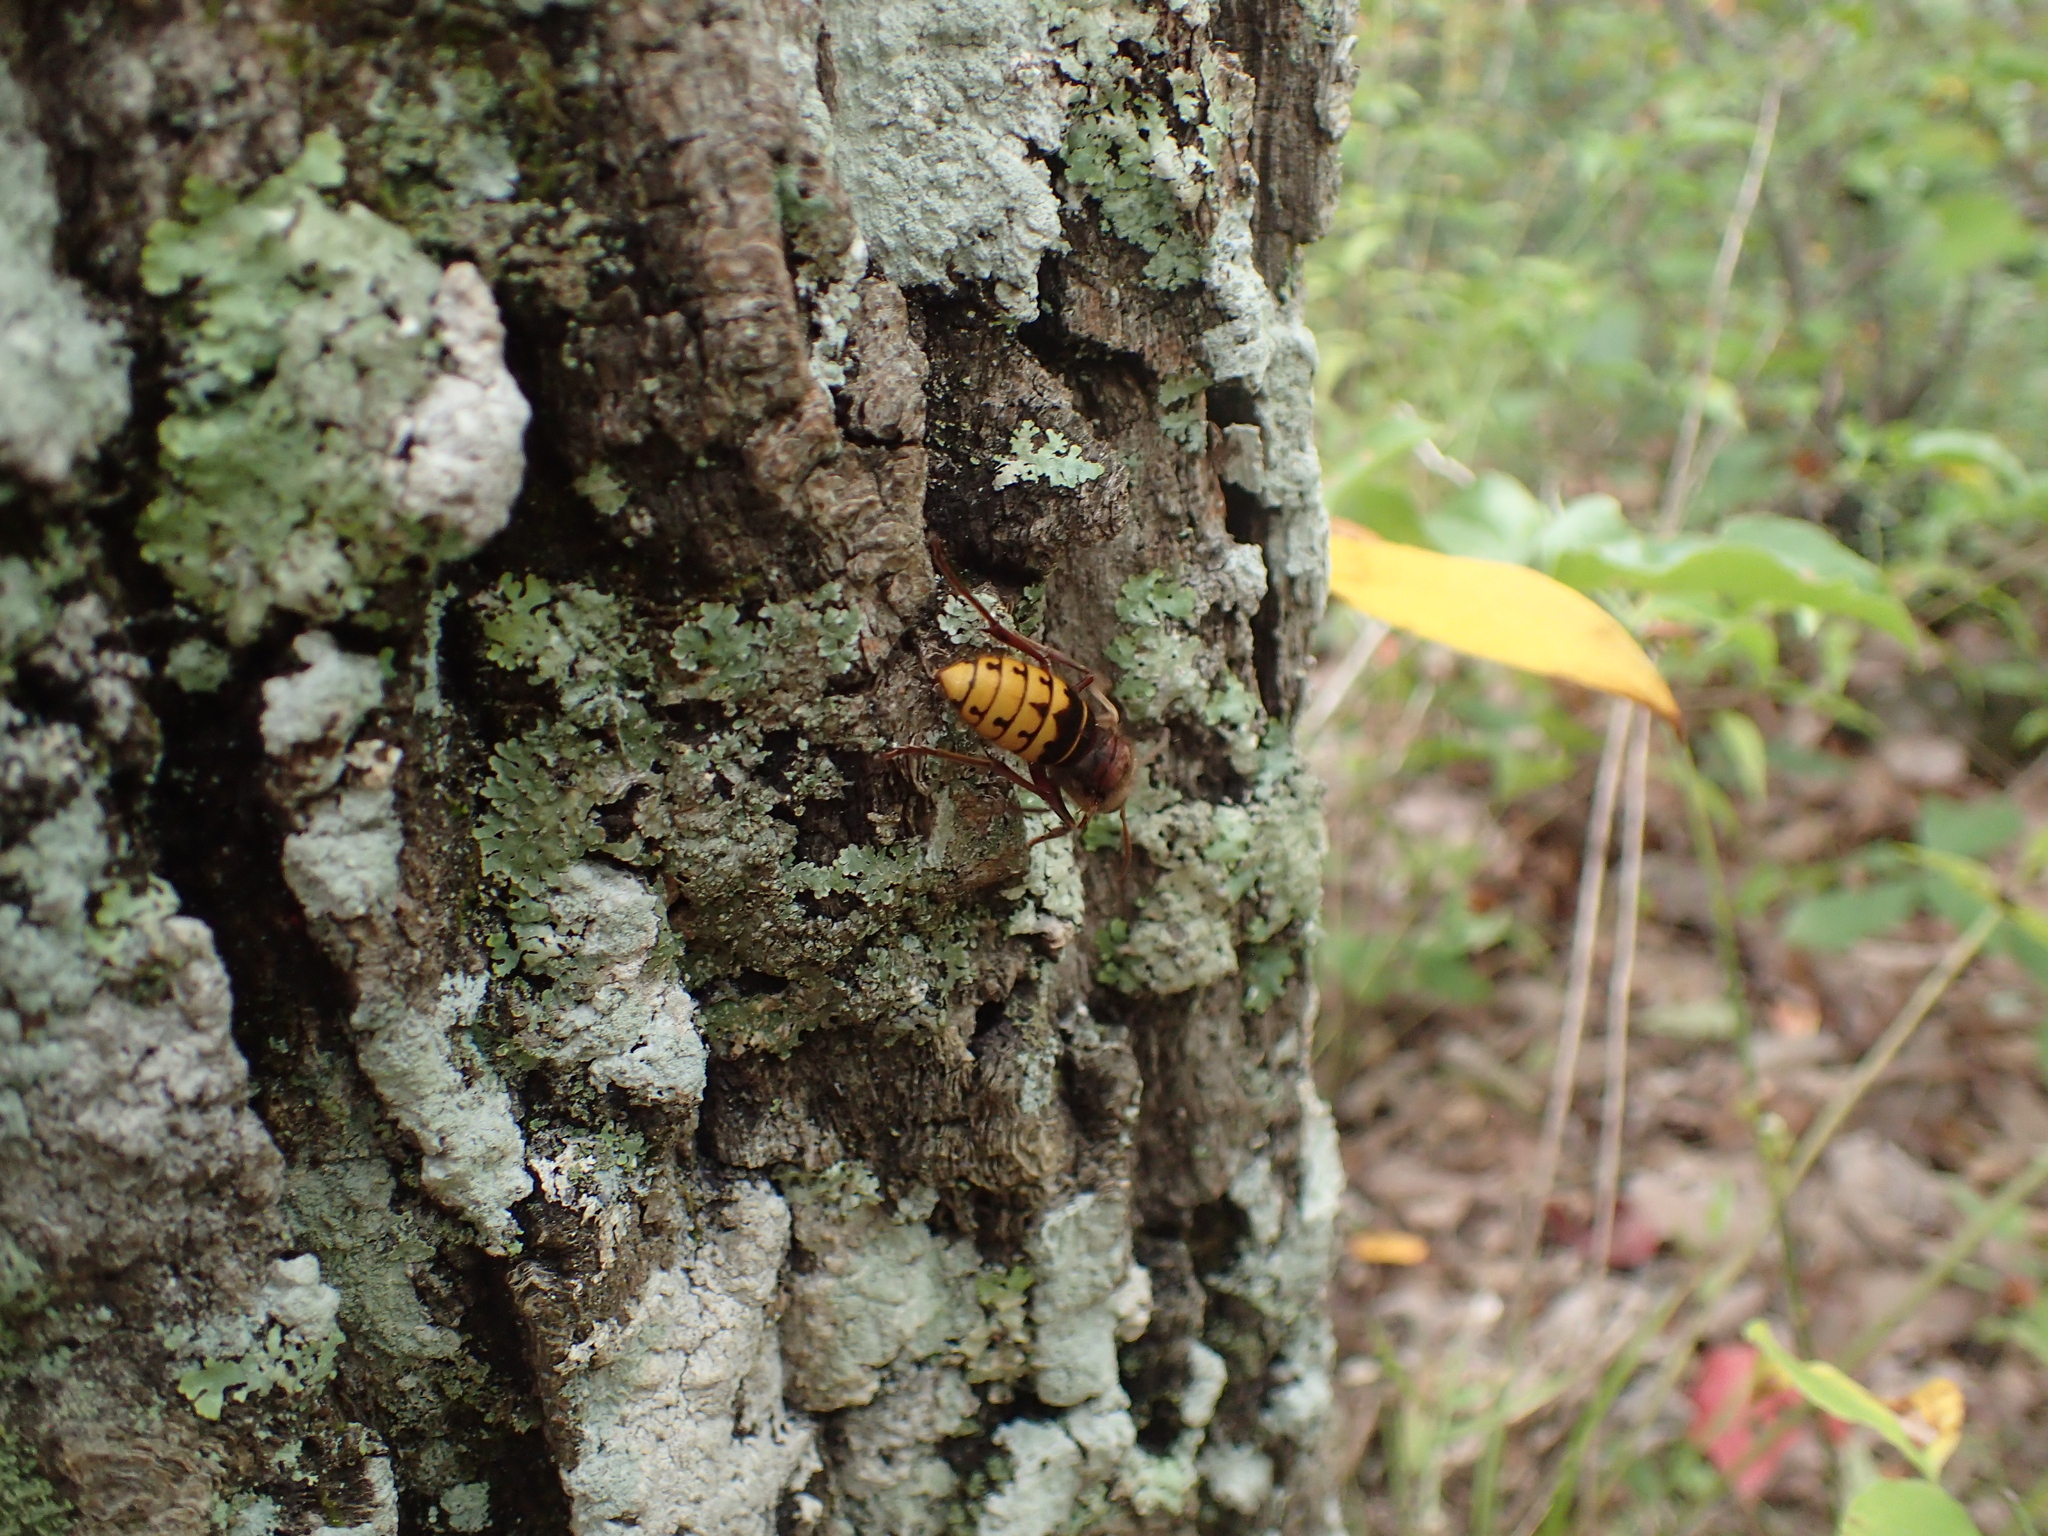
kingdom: Animalia
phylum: Arthropoda
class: Insecta
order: Hymenoptera
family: Vespidae
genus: Vespa
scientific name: Vespa crabro
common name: Hornet
